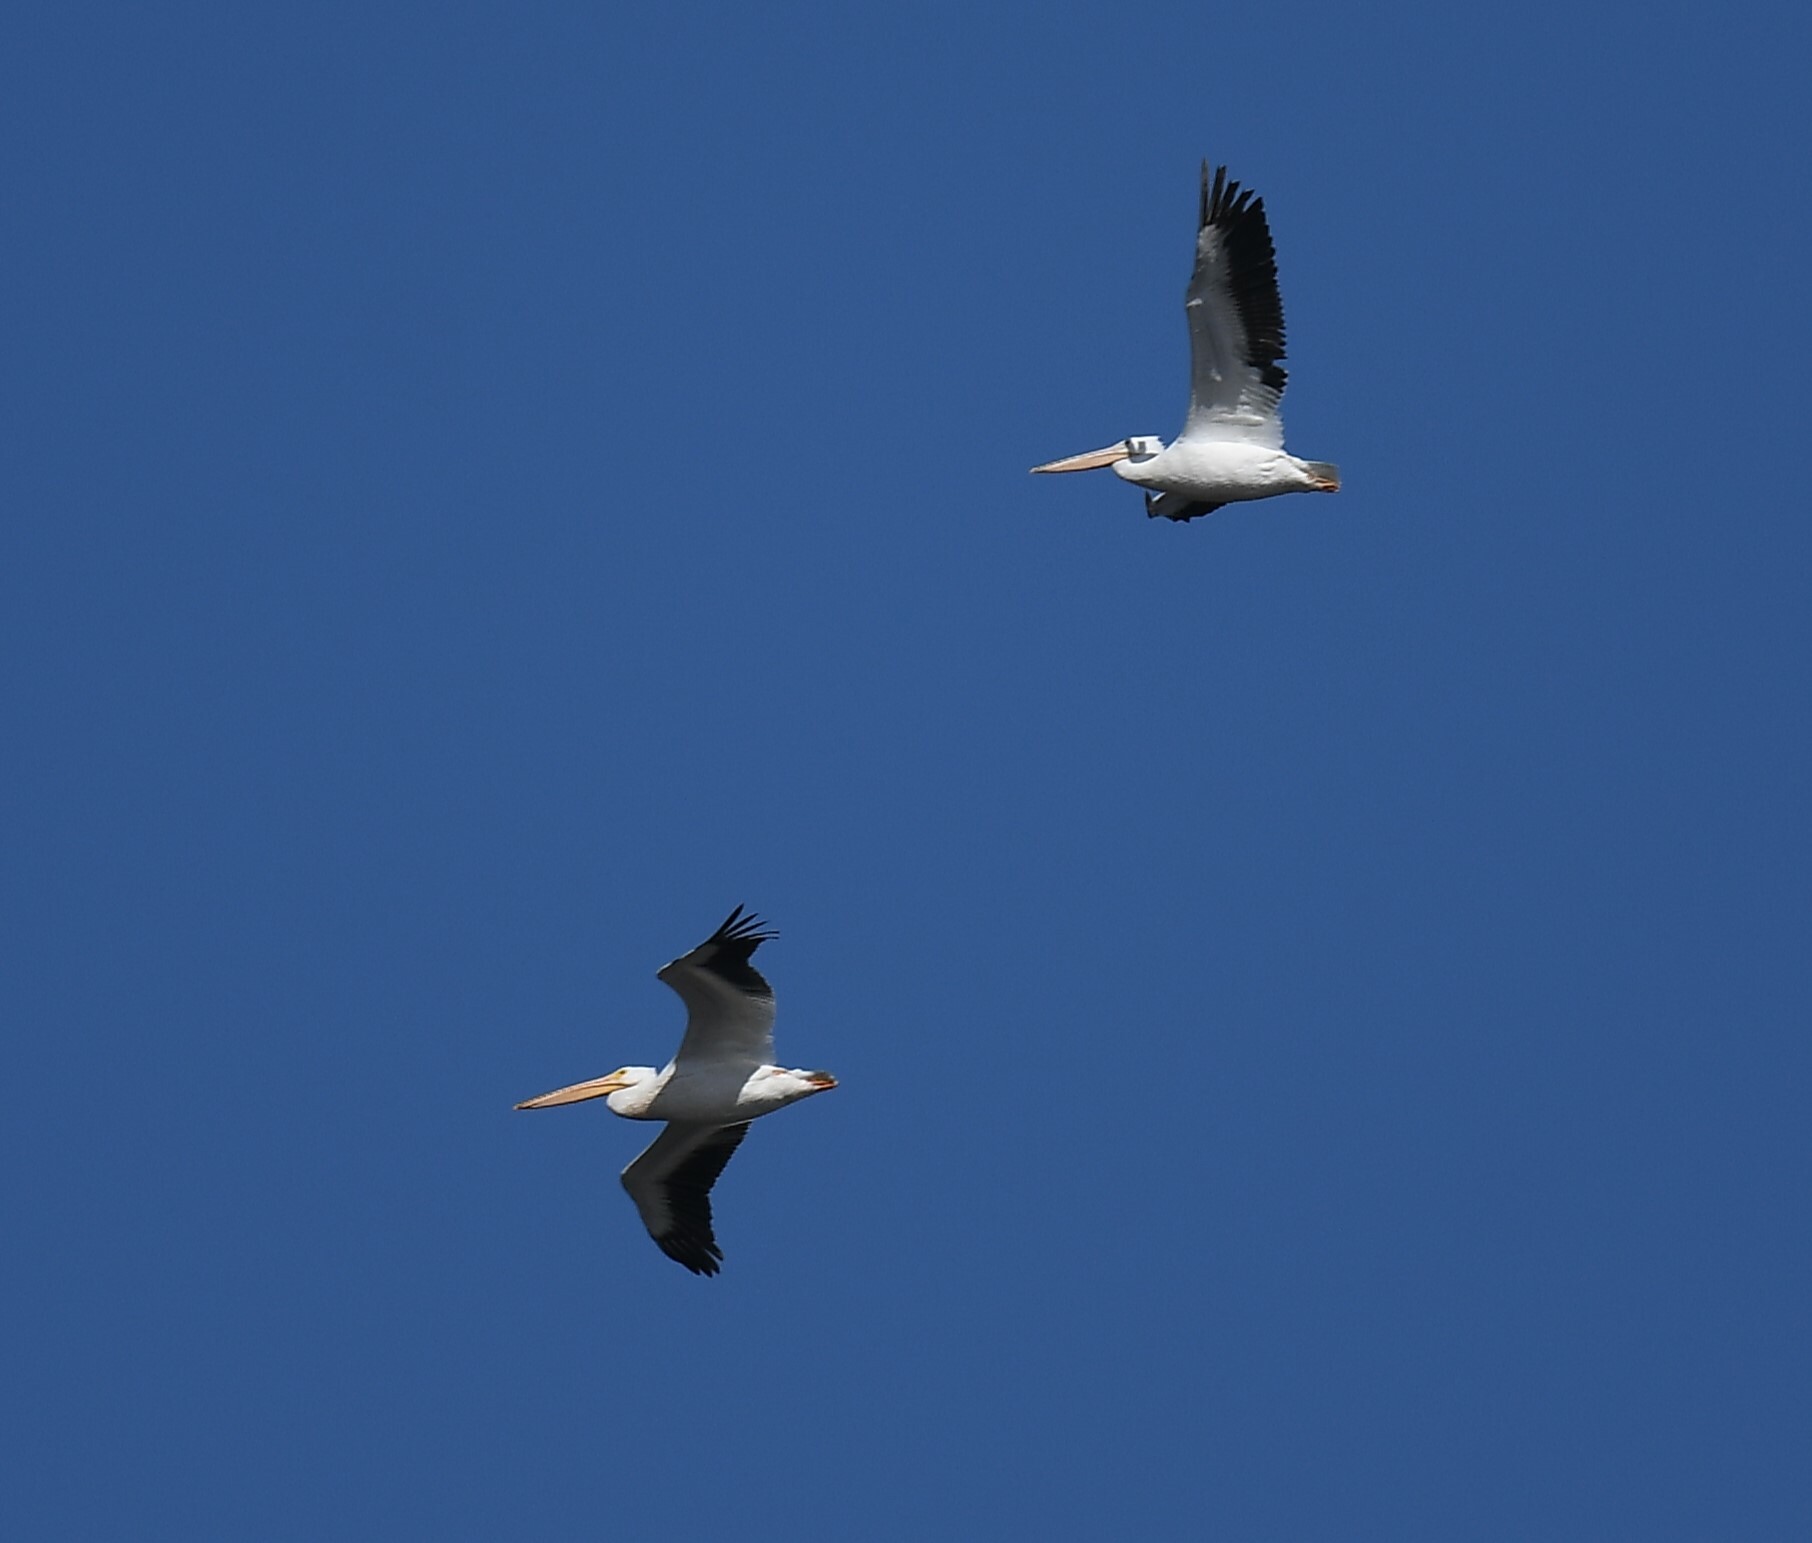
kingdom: Animalia
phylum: Chordata
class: Aves
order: Pelecaniformes
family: Pelecanidae
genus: Pelecanus
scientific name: Pelecanus erythrorhynchos
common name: American white pelican
